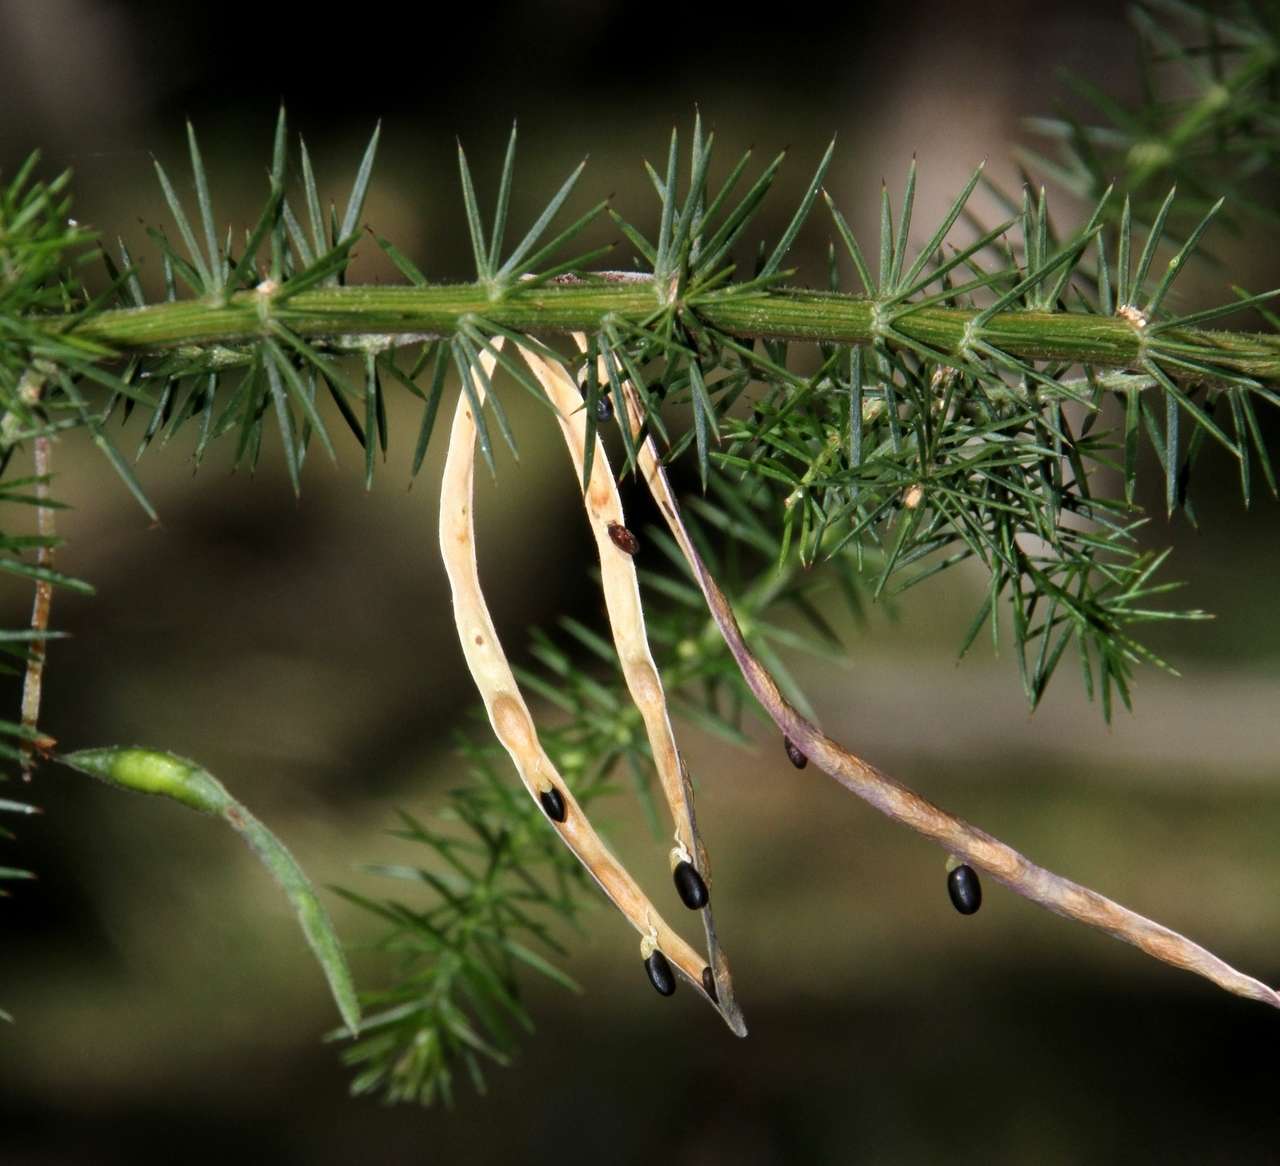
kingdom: Plantae
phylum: Tracheophyta
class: Magnoliopsida
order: Fabales
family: Fabaceae
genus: Acacia
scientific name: Acacia verticillata
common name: Prickly moses
